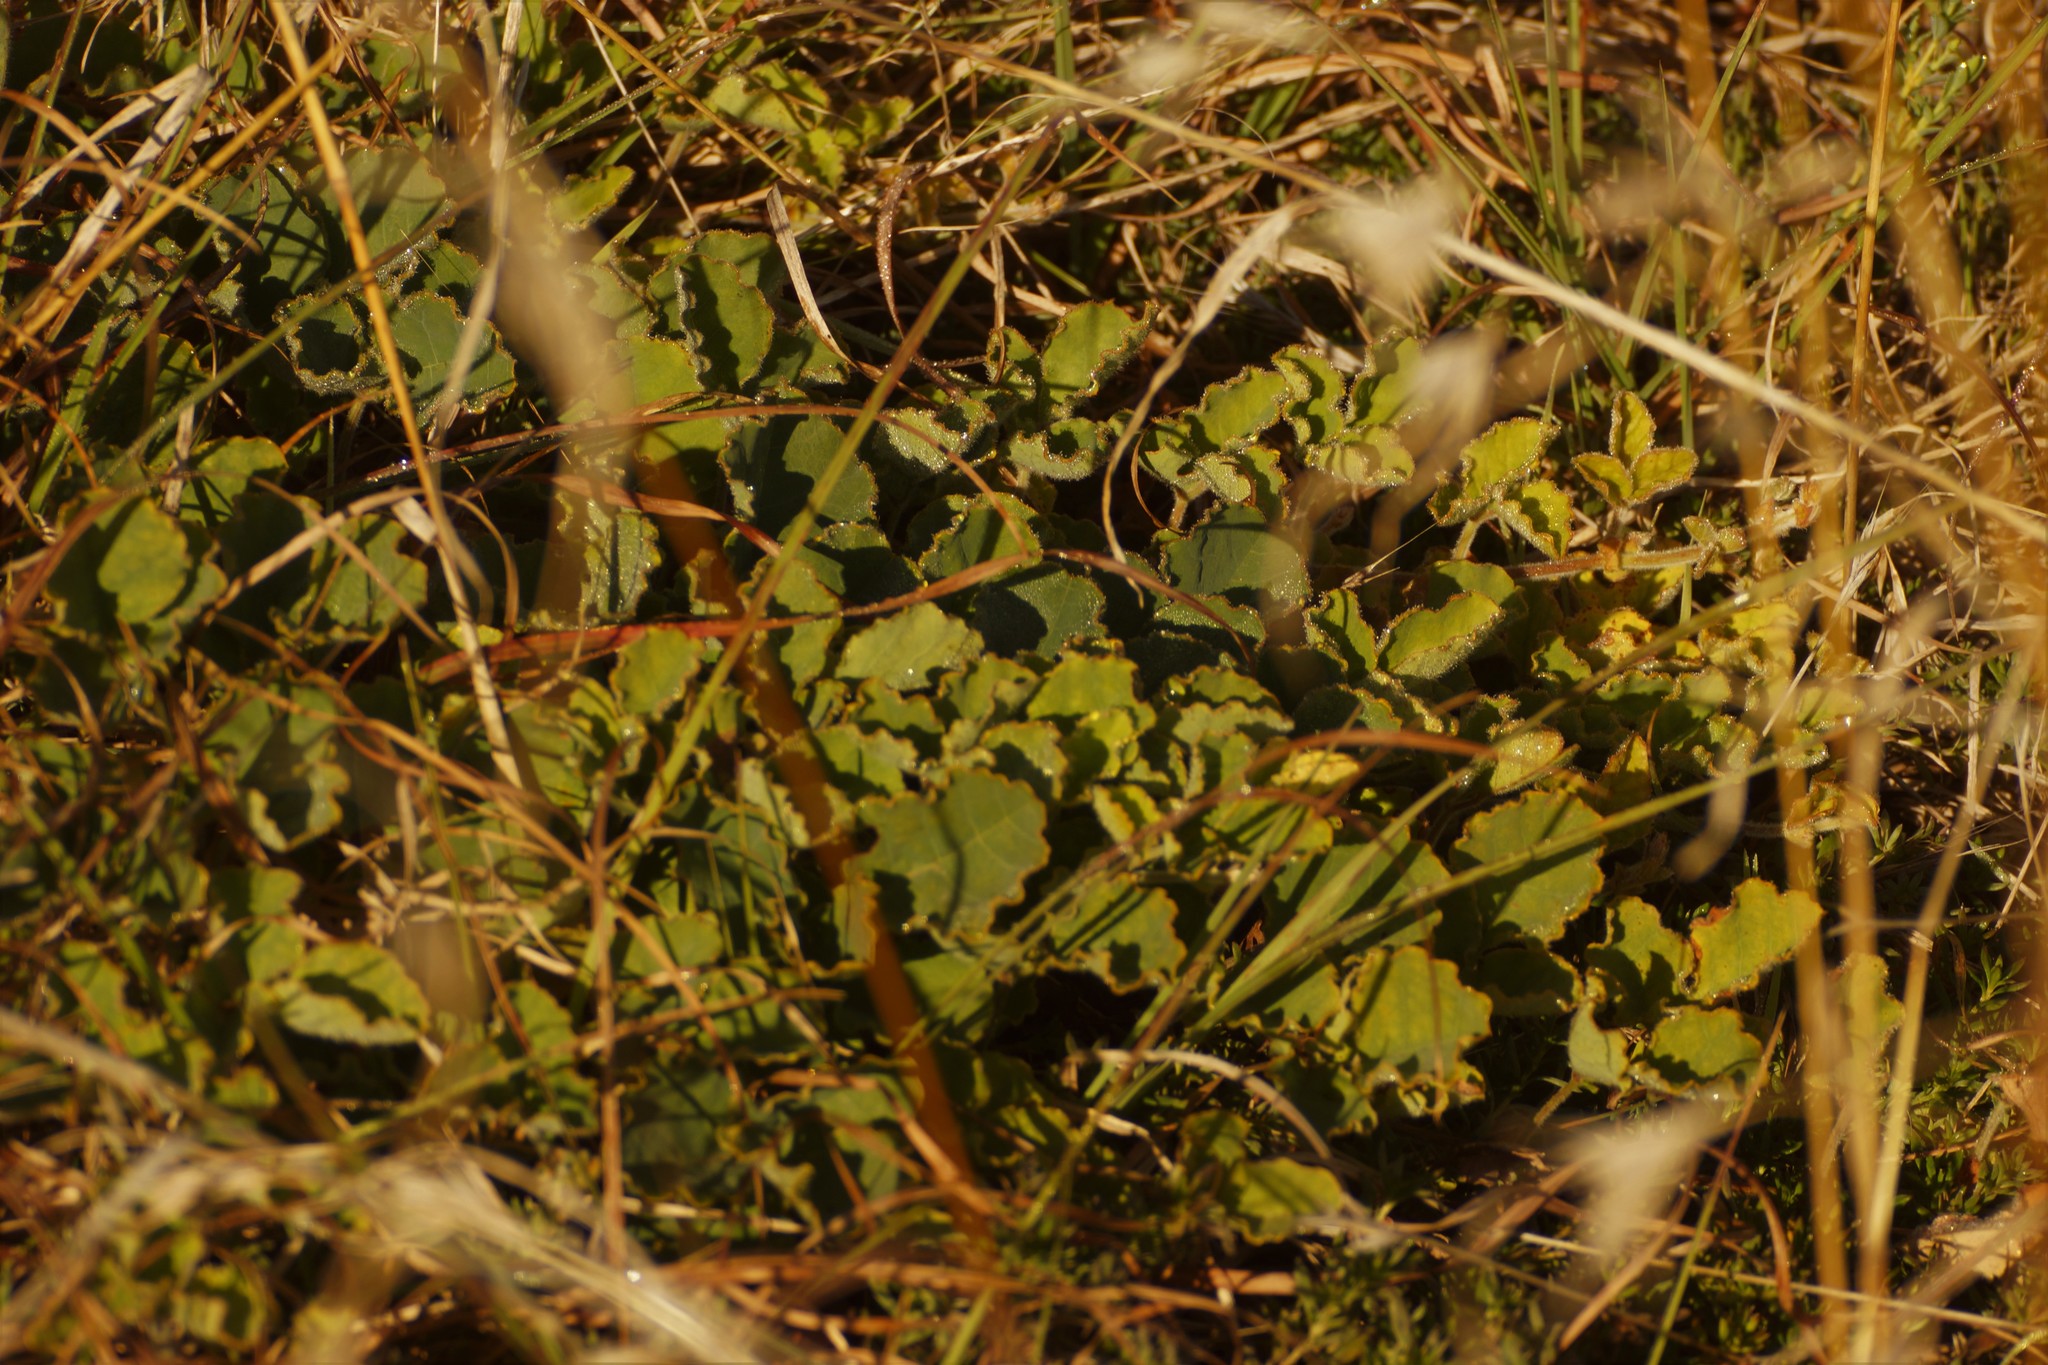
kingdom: Plantae
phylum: Tracheophyta
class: Magnoliopsida
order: Fabales
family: Fabaceae
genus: Kennedia
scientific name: Kennedia prostrata
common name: Running-postman
